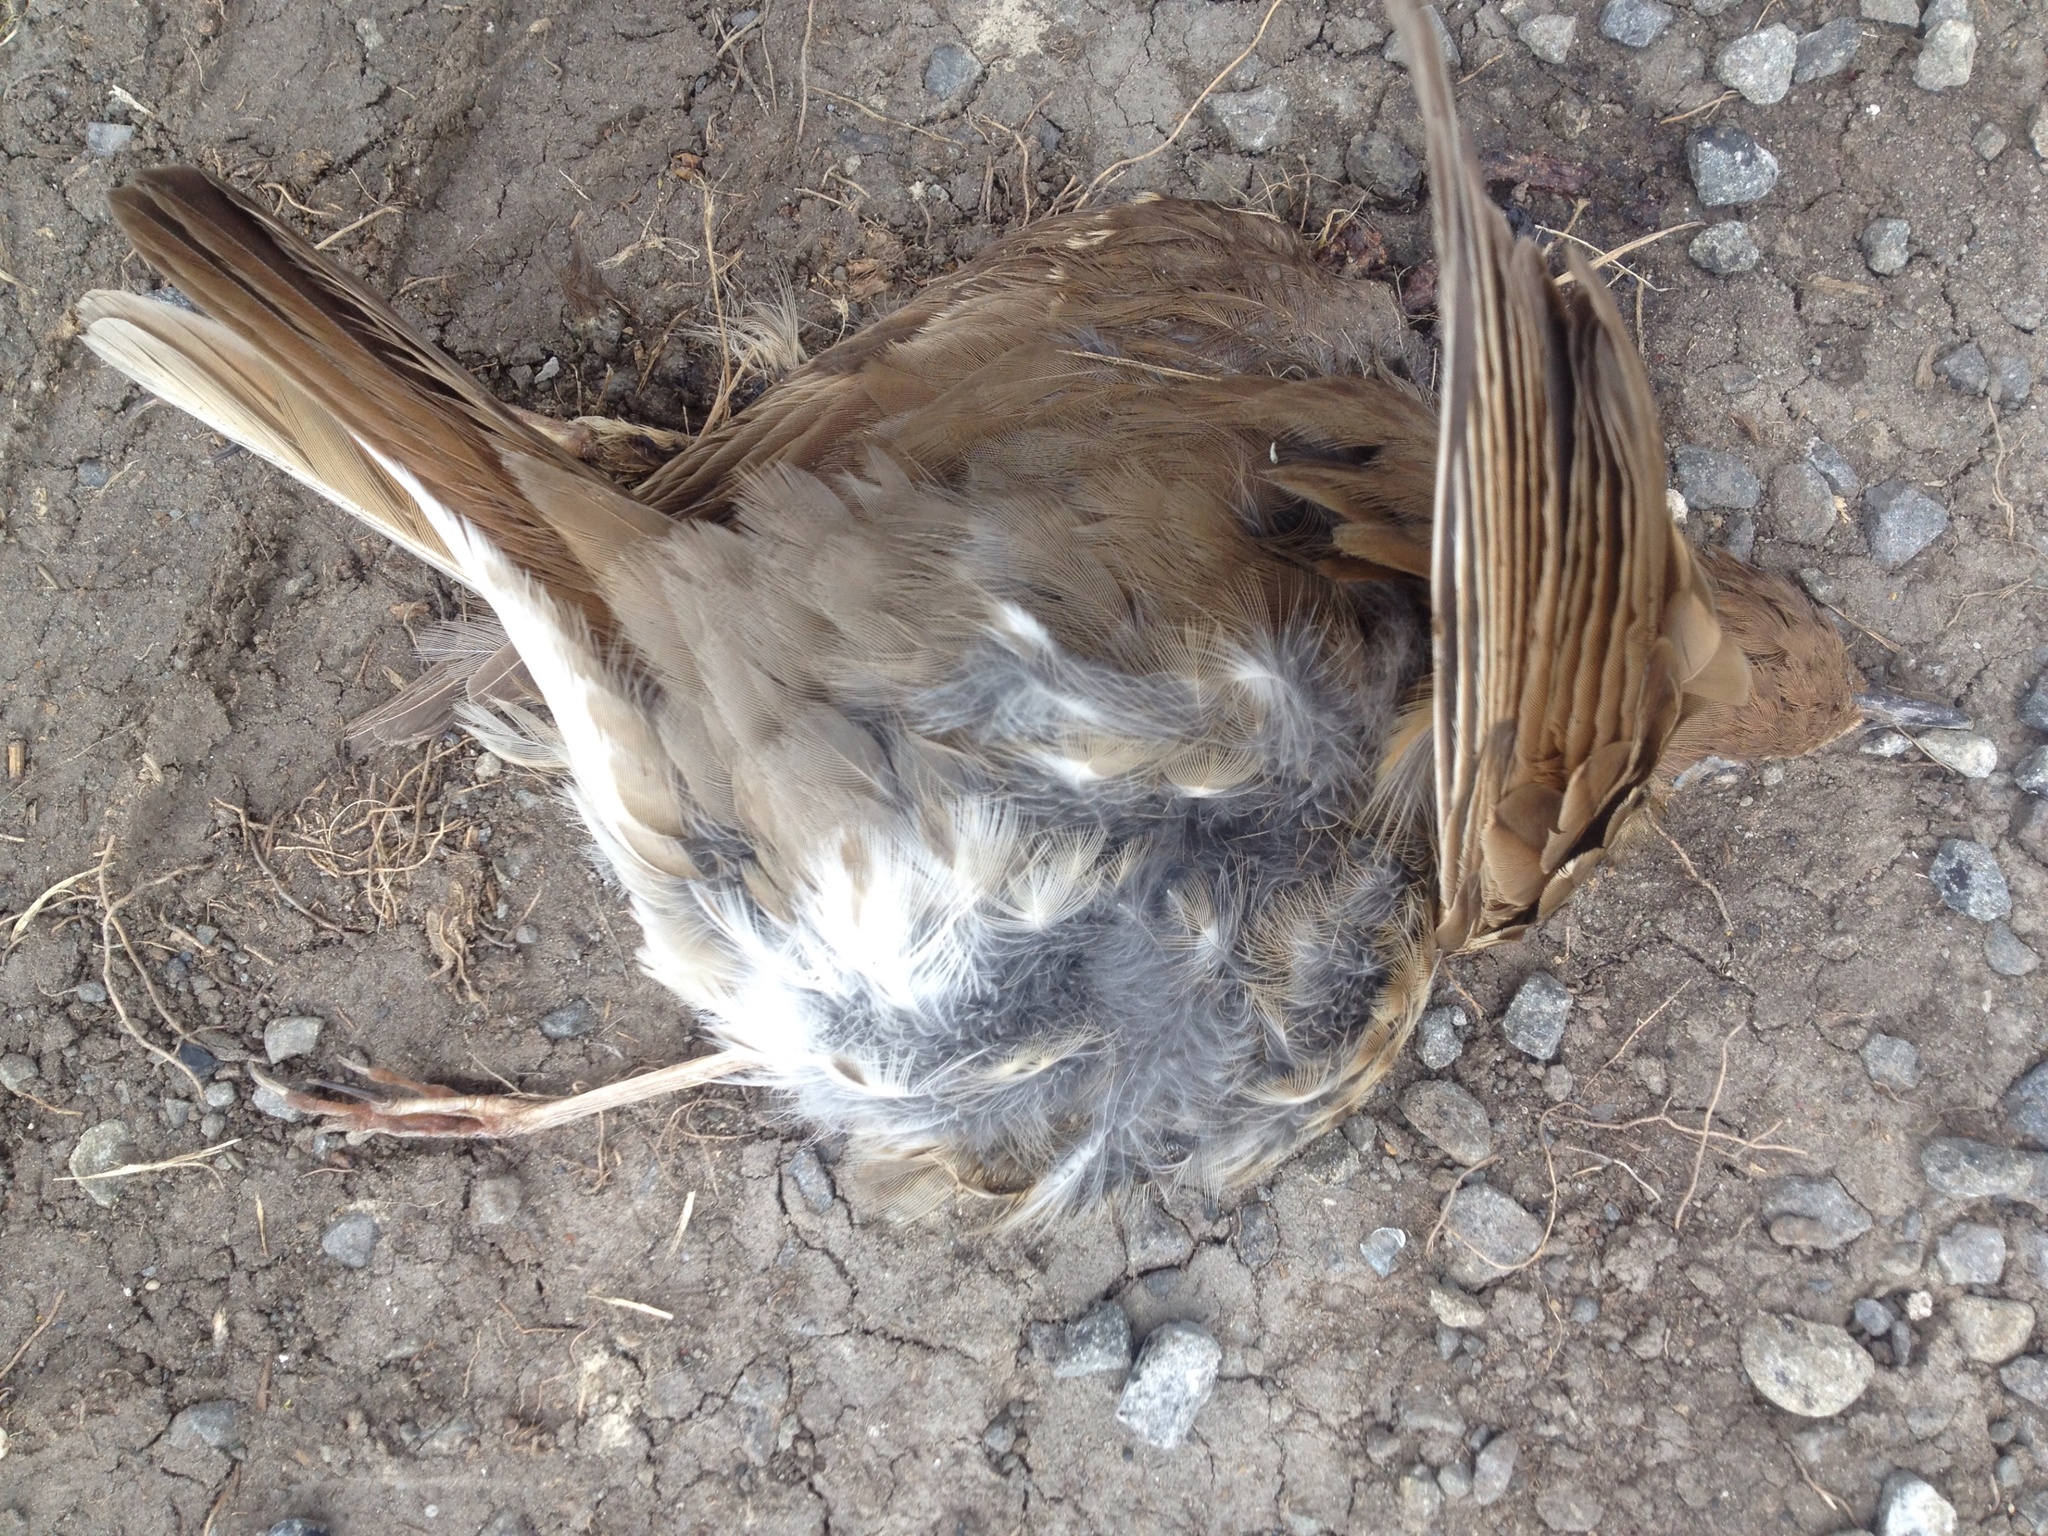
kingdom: Animalia
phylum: Chordata
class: Aves
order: Passeriformes
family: Turdidae
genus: Turdus
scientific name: Turdus philomelos
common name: Song thrush
